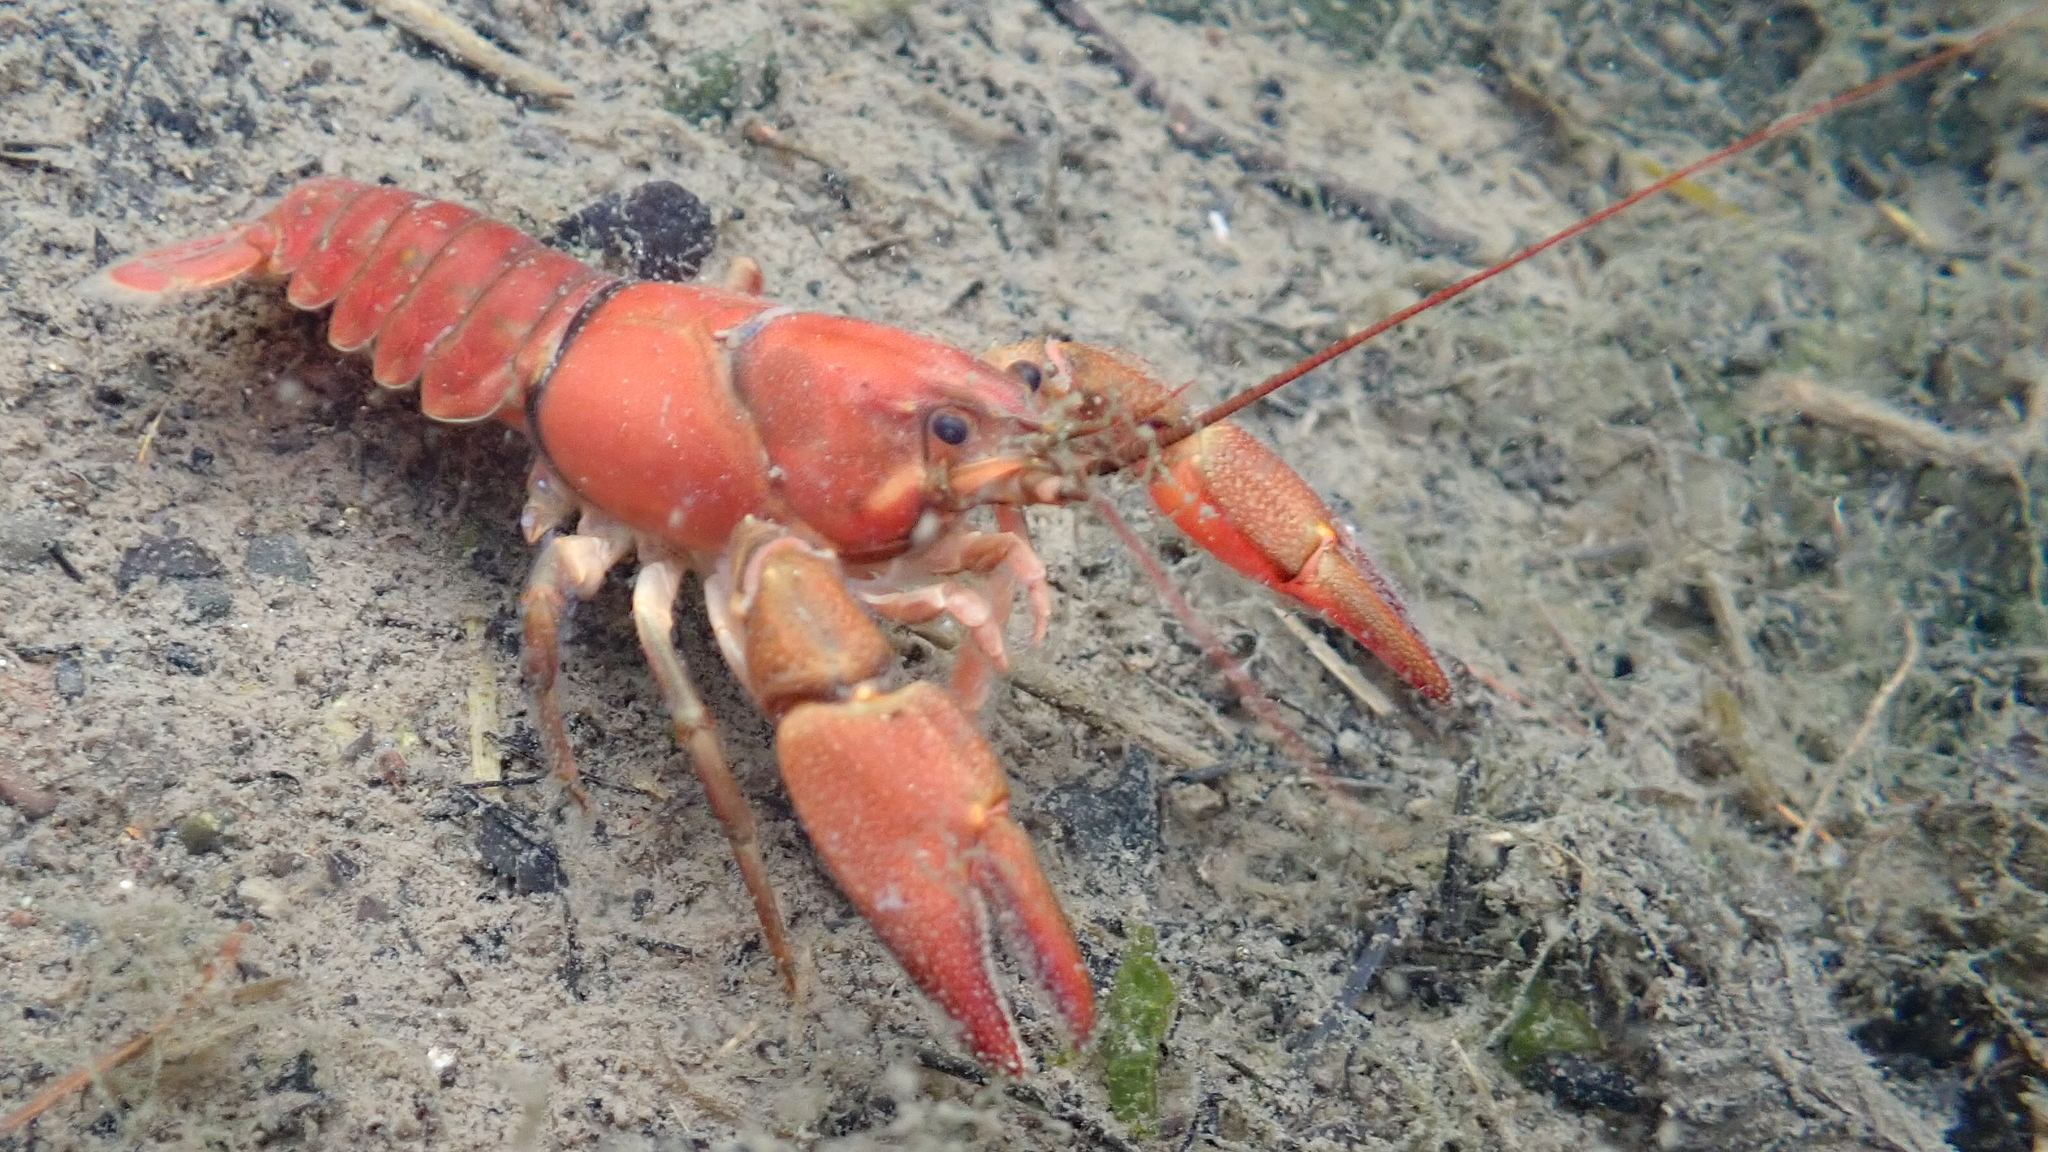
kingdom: Animalia
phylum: Arthropoda
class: Malacostraca
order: Decapoda
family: Astacidae
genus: Pacifastacus
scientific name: Pacifastacus leniusculus
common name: Signal crayfish
